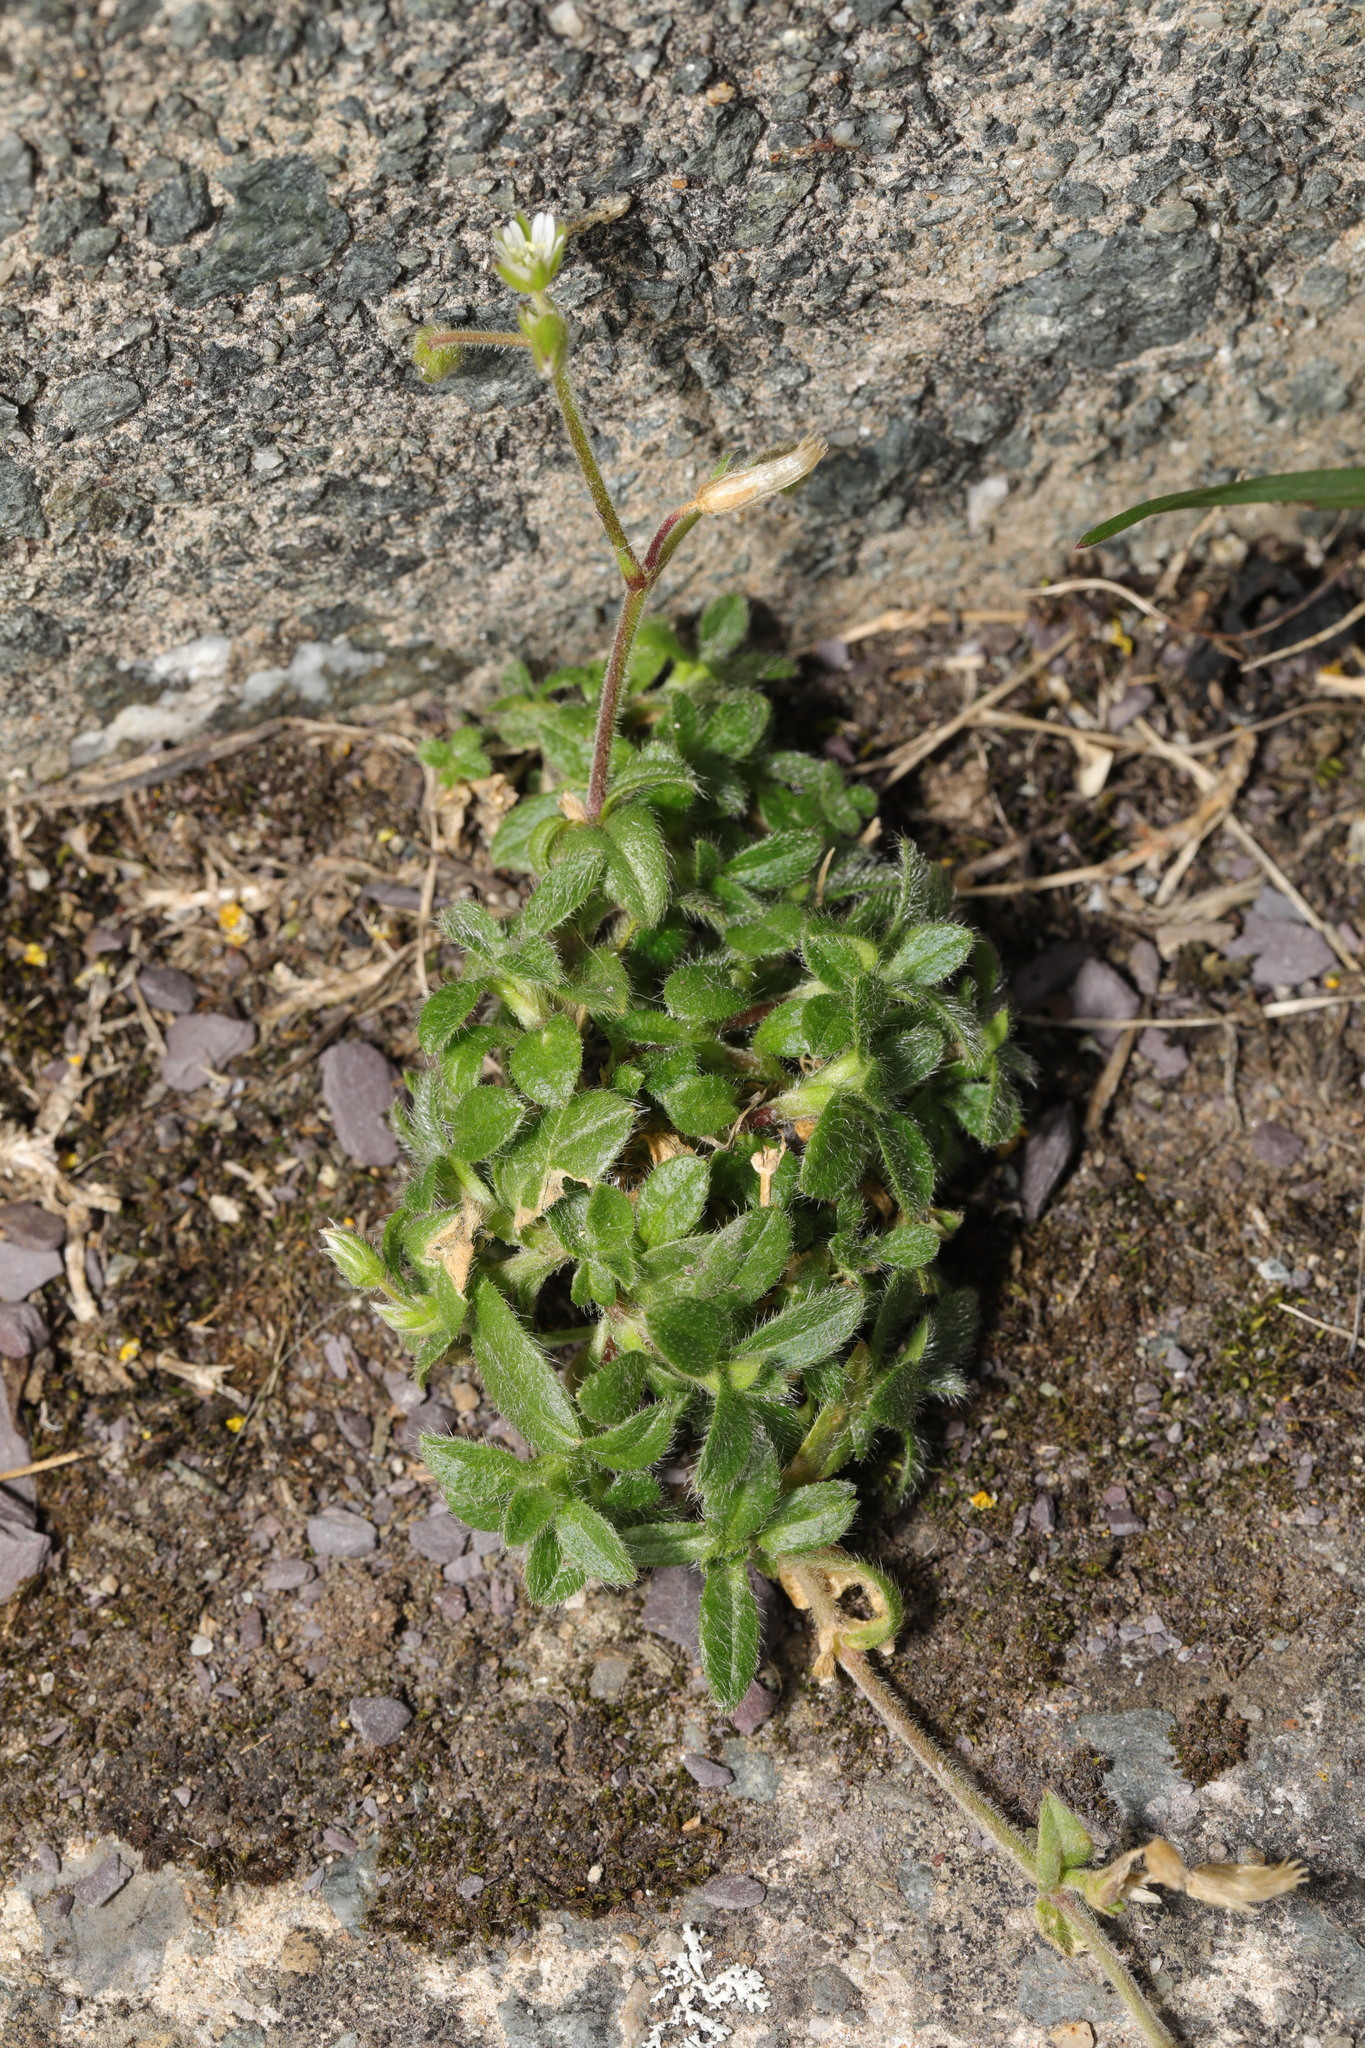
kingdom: Plantae
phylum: Tracheophyta
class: Magnoliopsida
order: Caryophyllales
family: Caryophyllaceae
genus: Cerastium
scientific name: Cerastium fontanum
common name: Common mouse-ear
